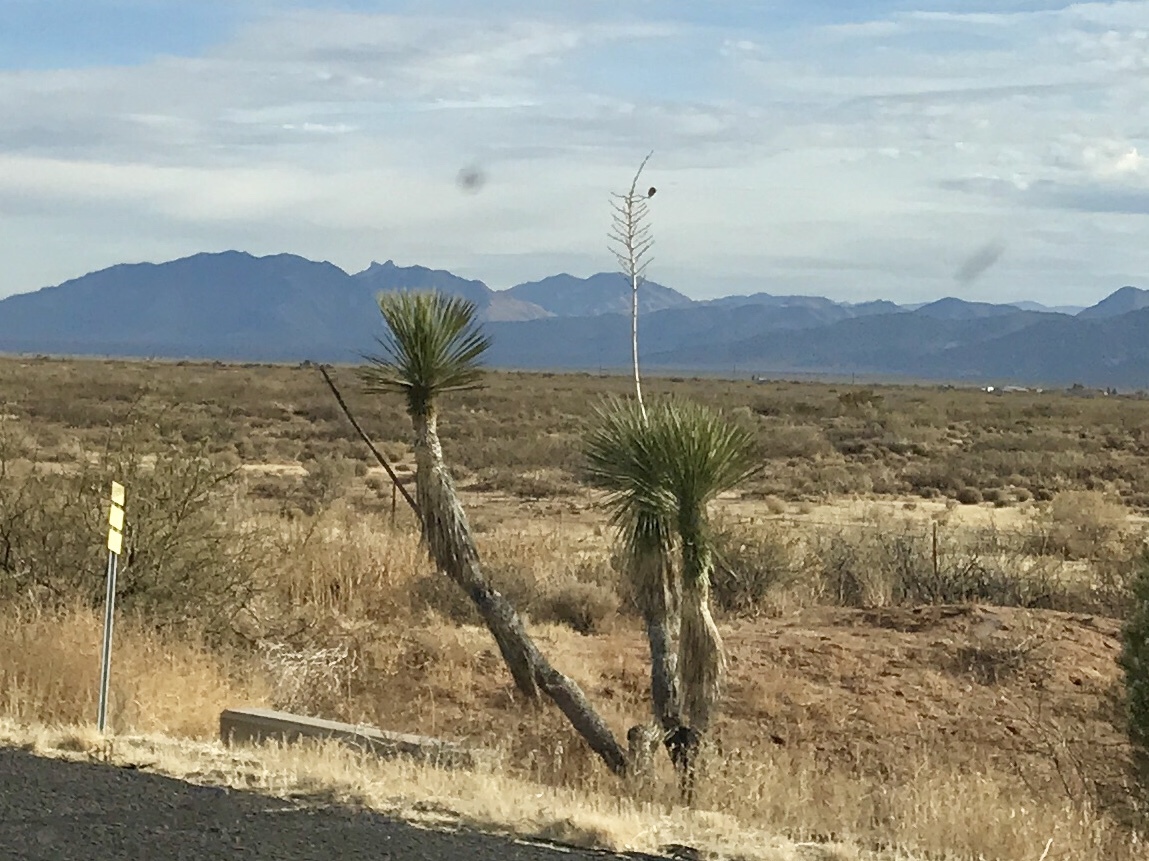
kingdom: Plantae
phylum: Tracheophyta
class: Liliopsida
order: Asparagales
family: Asparagaceae
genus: Yucca
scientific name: Yucca elata
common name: Palmella
